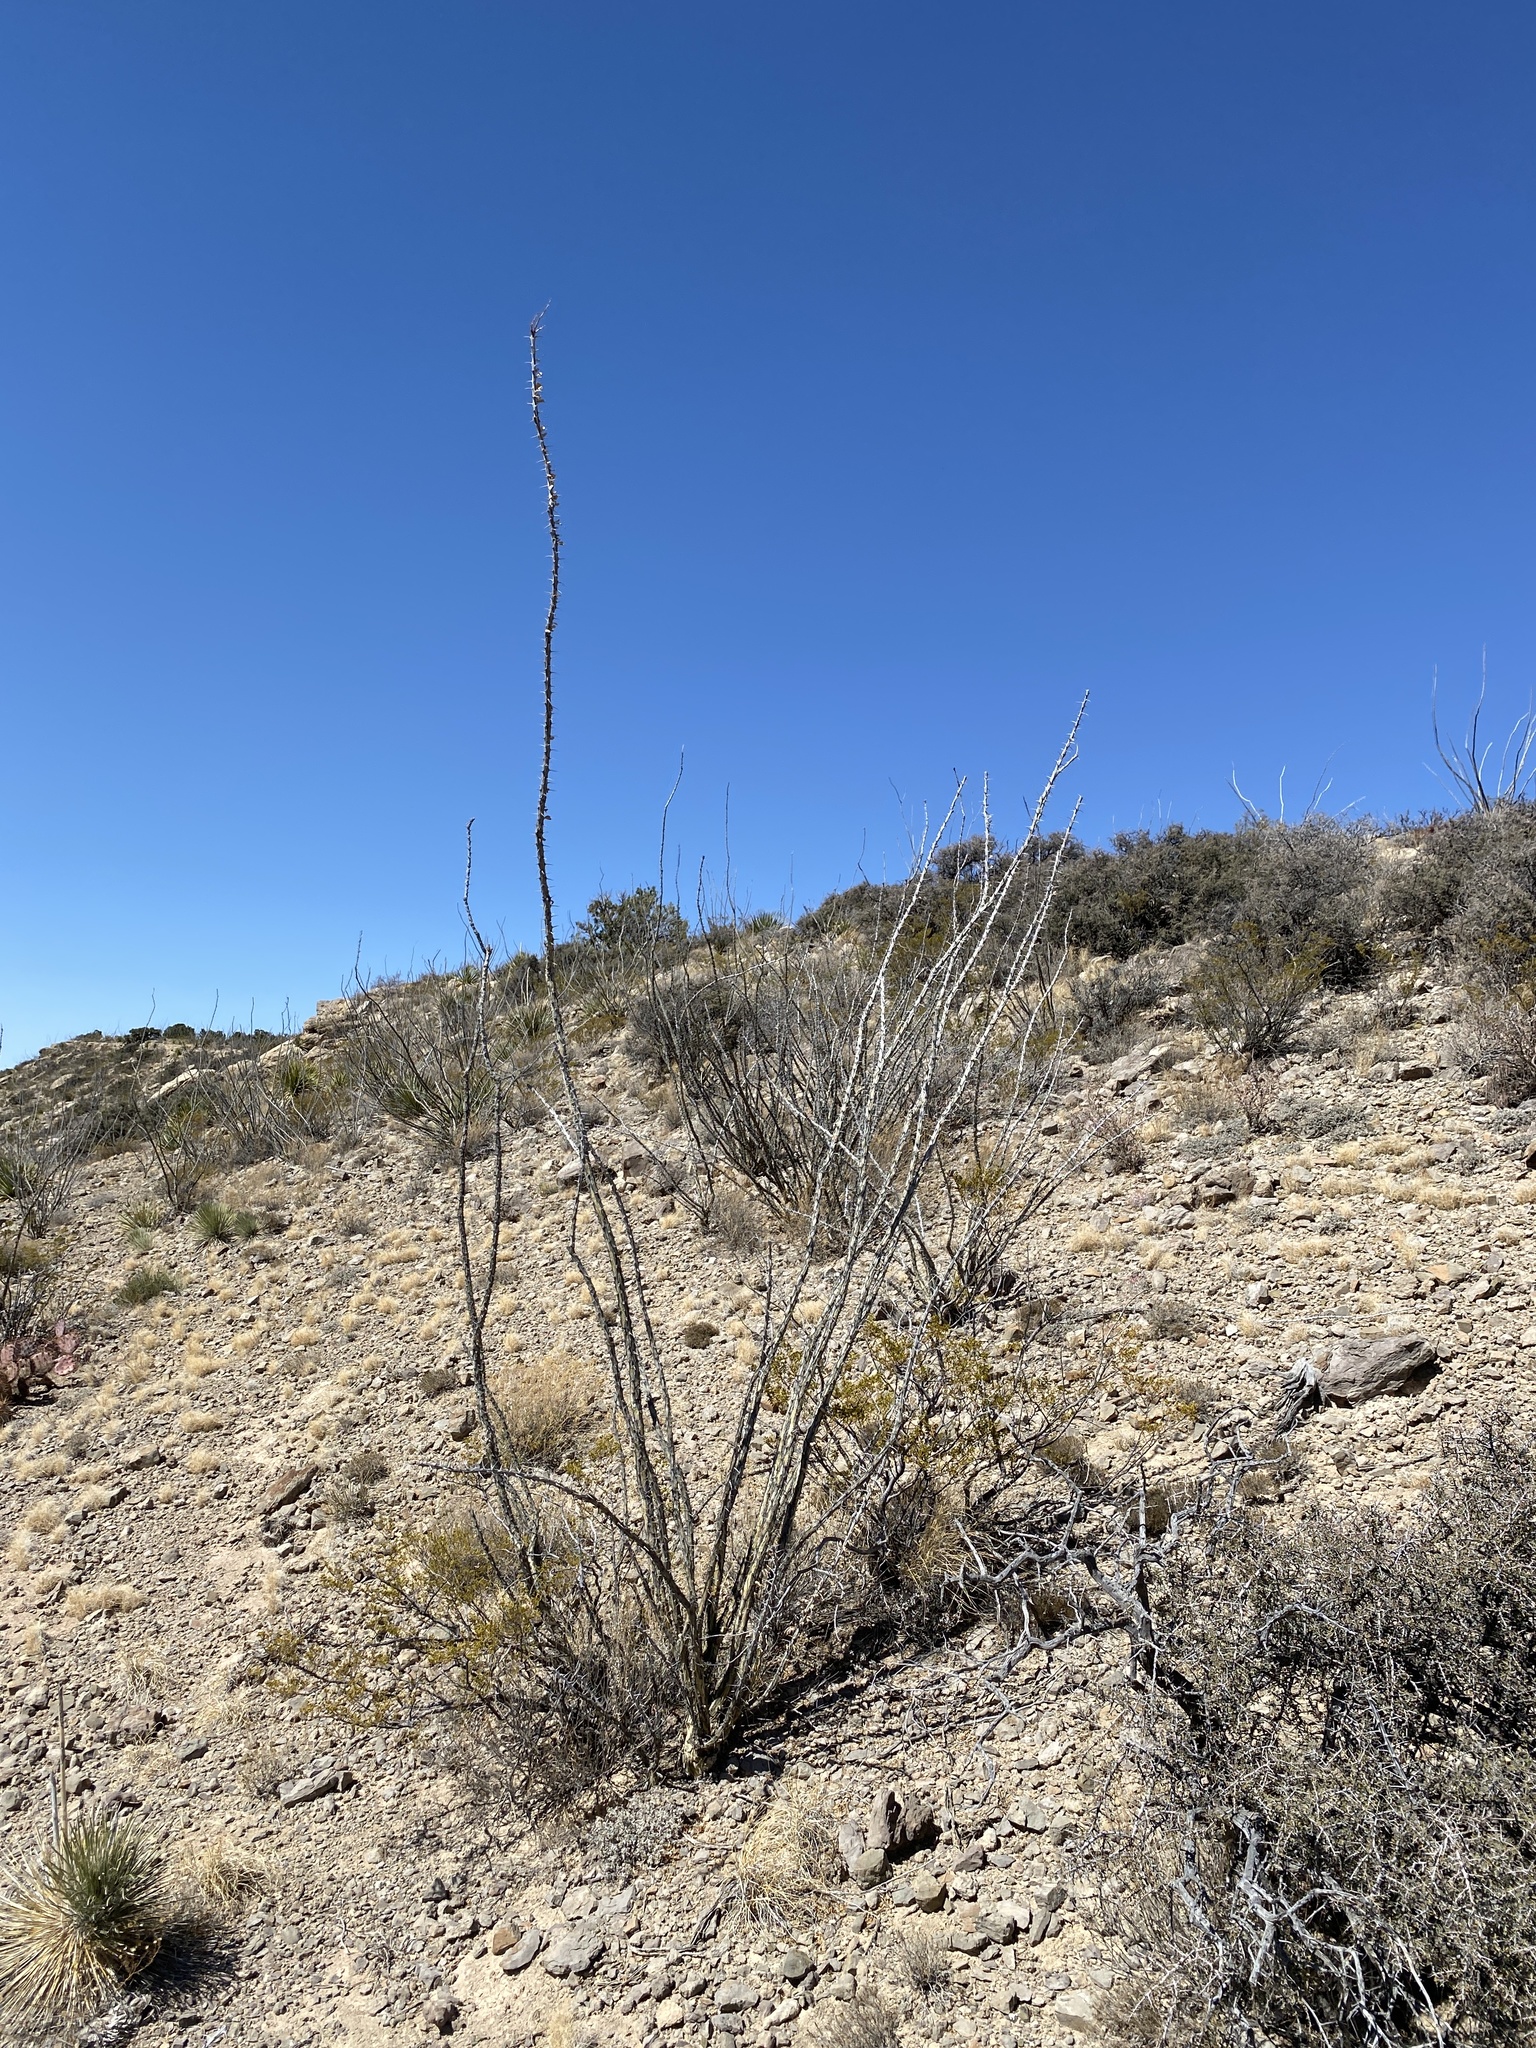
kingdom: Plantae
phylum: Tracheophyta
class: Magnoliopsida
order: Ericales
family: Fouquieriaceae
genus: Fouquieria
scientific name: Fouquieria splendens
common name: Vine-cactus
